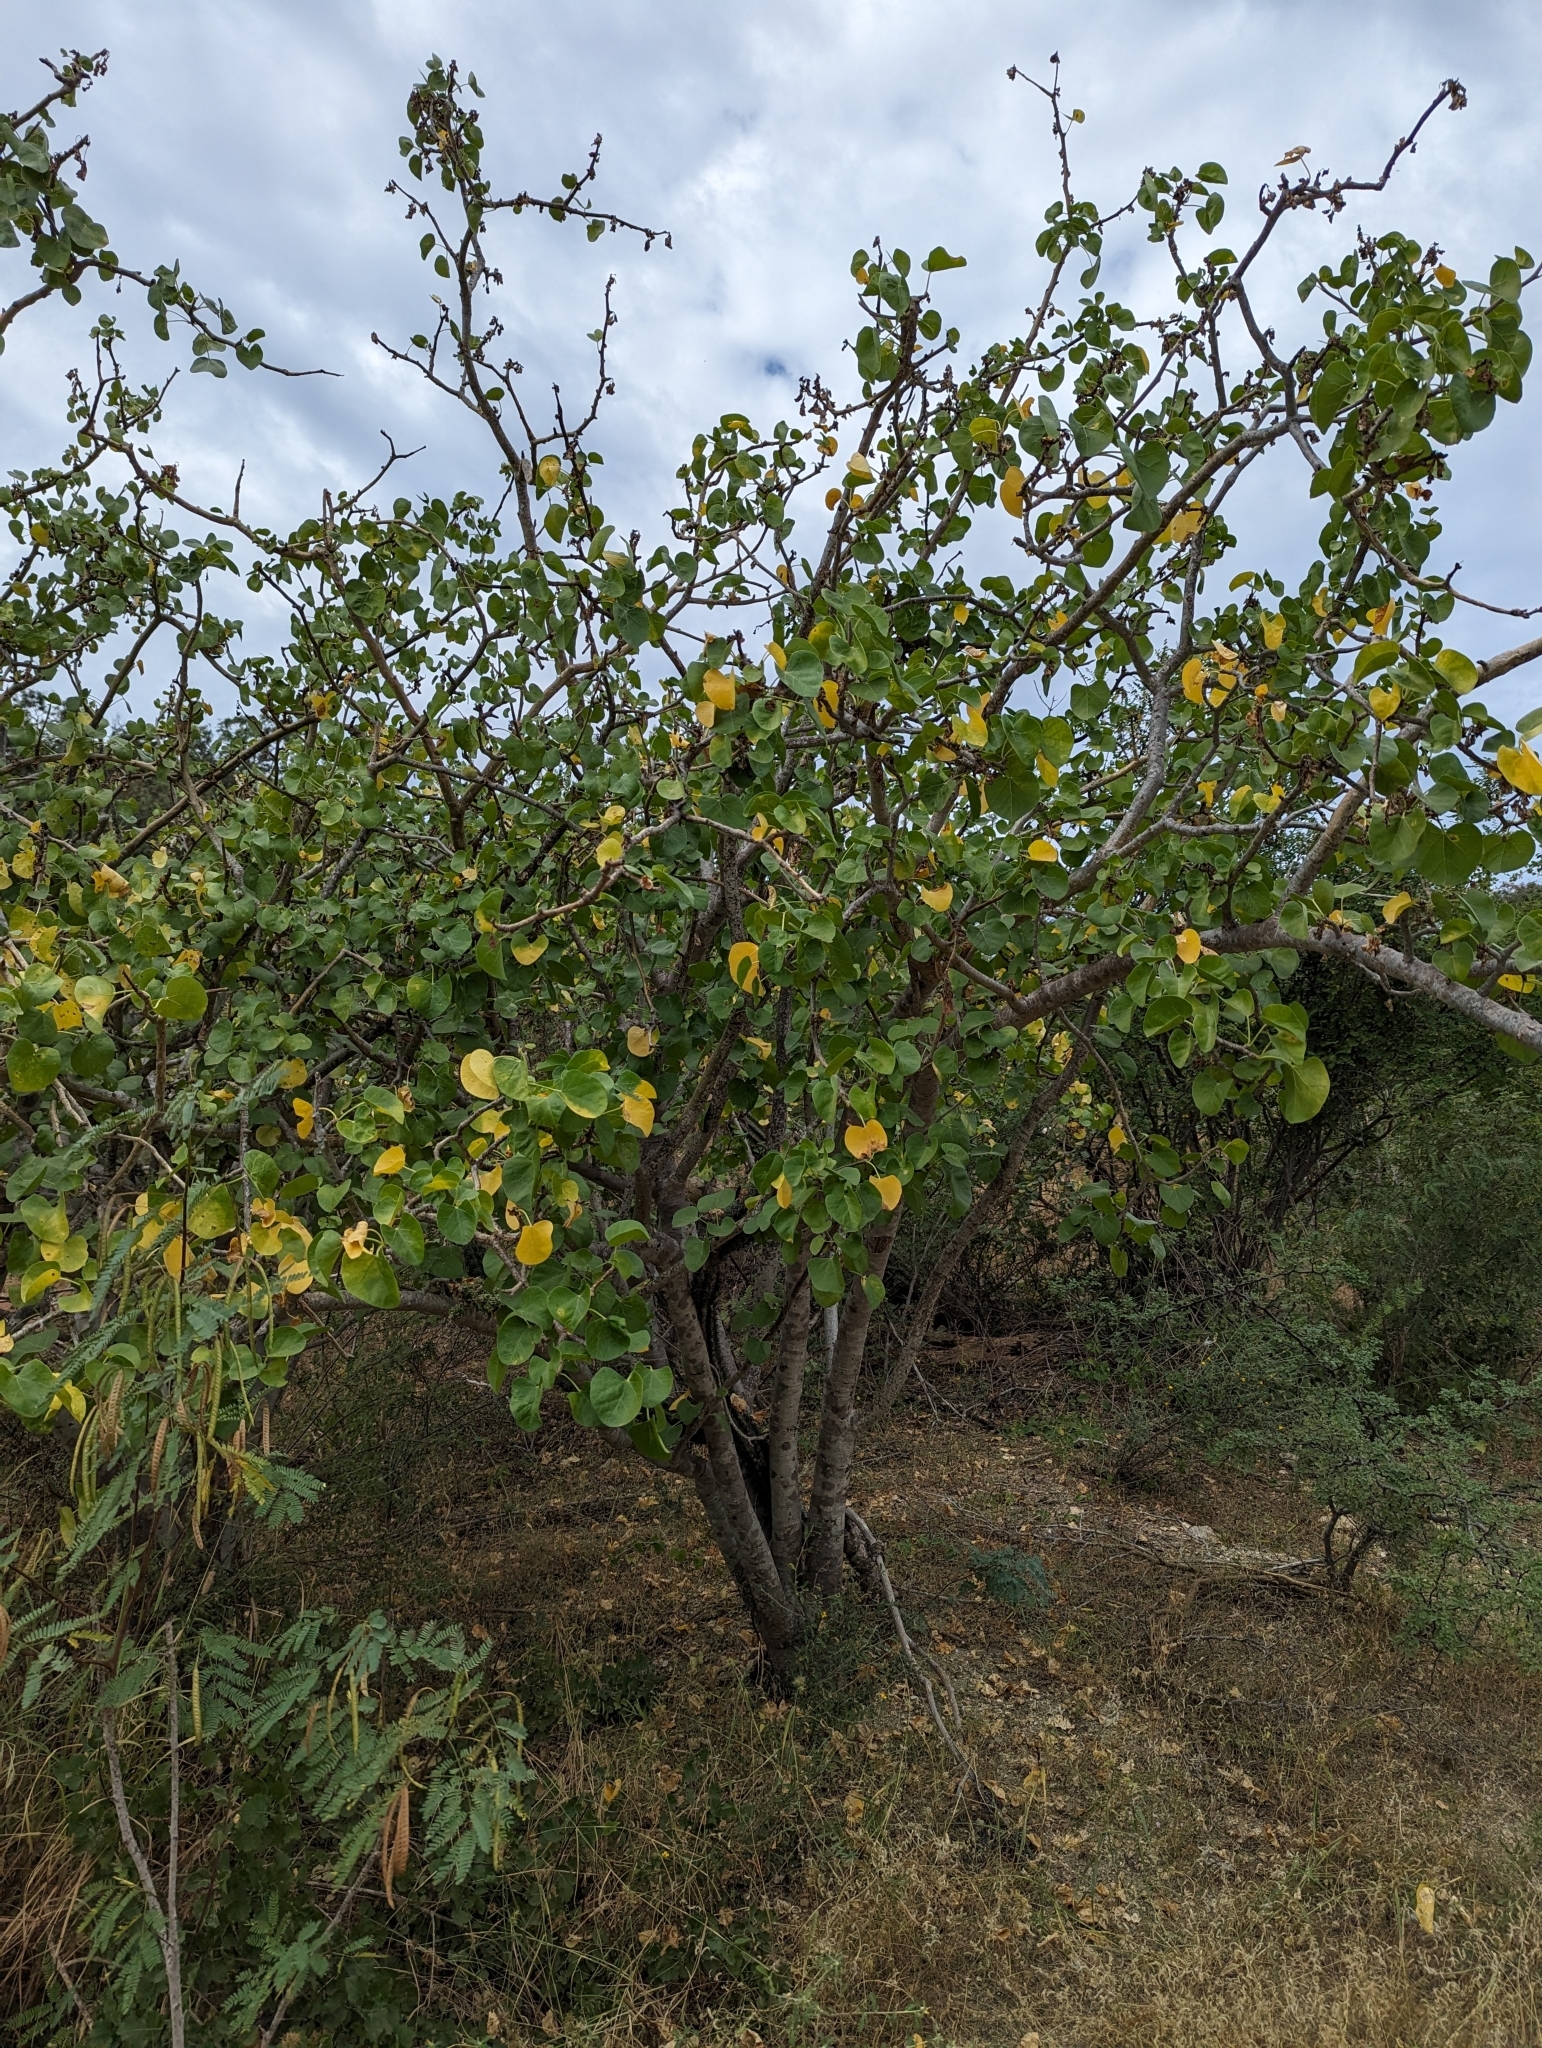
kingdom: Plantae
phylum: Tracheophyta
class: Magnoliopsida
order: Malpighiales
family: Euphorbiaceae
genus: Jatropha
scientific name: Jatropha cinerea
